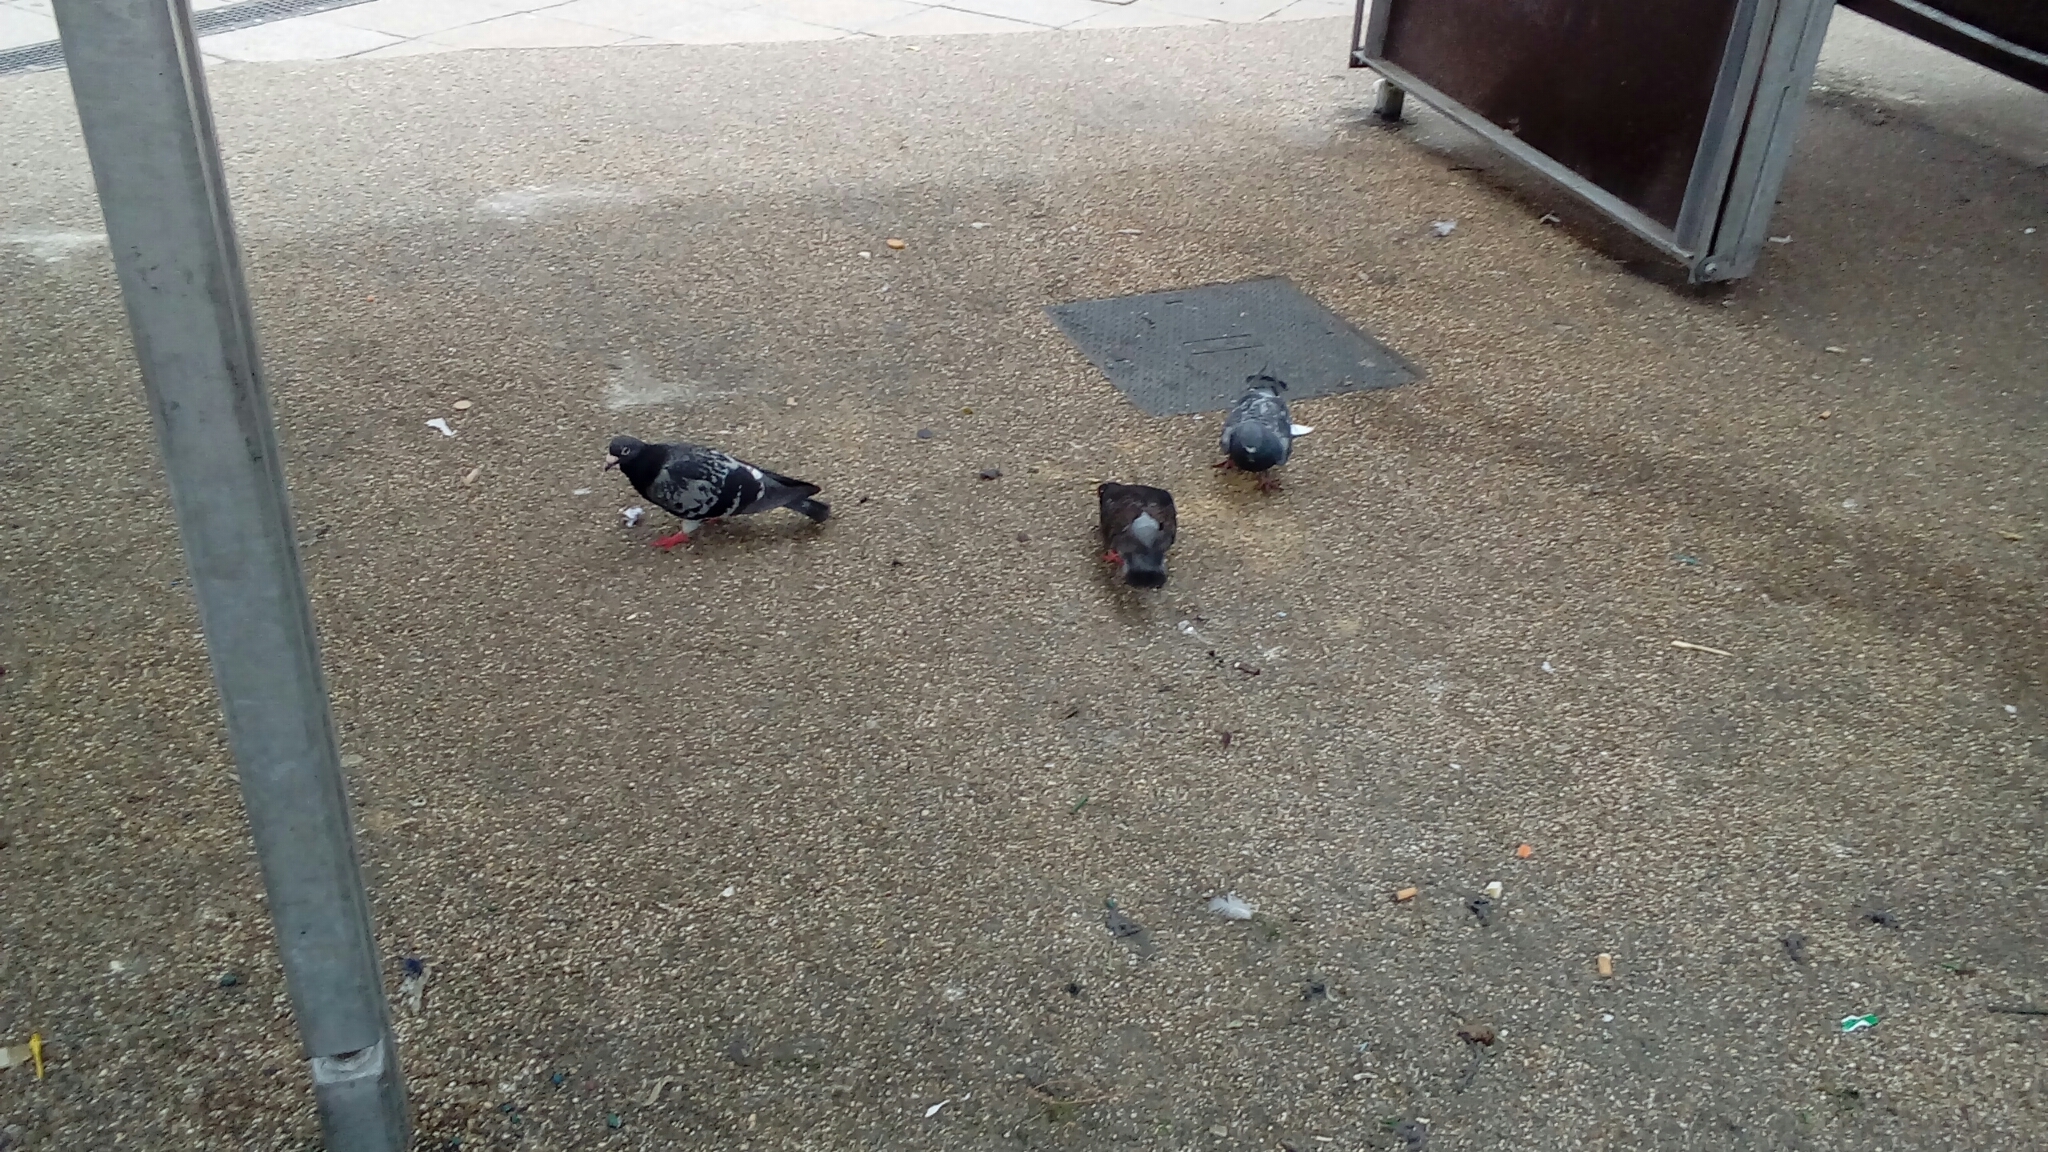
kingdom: Animalia
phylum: Chordata
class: Aves
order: Columbiformes
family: Columbidae
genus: Columba
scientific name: Columba livia
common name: Rock pigeon
